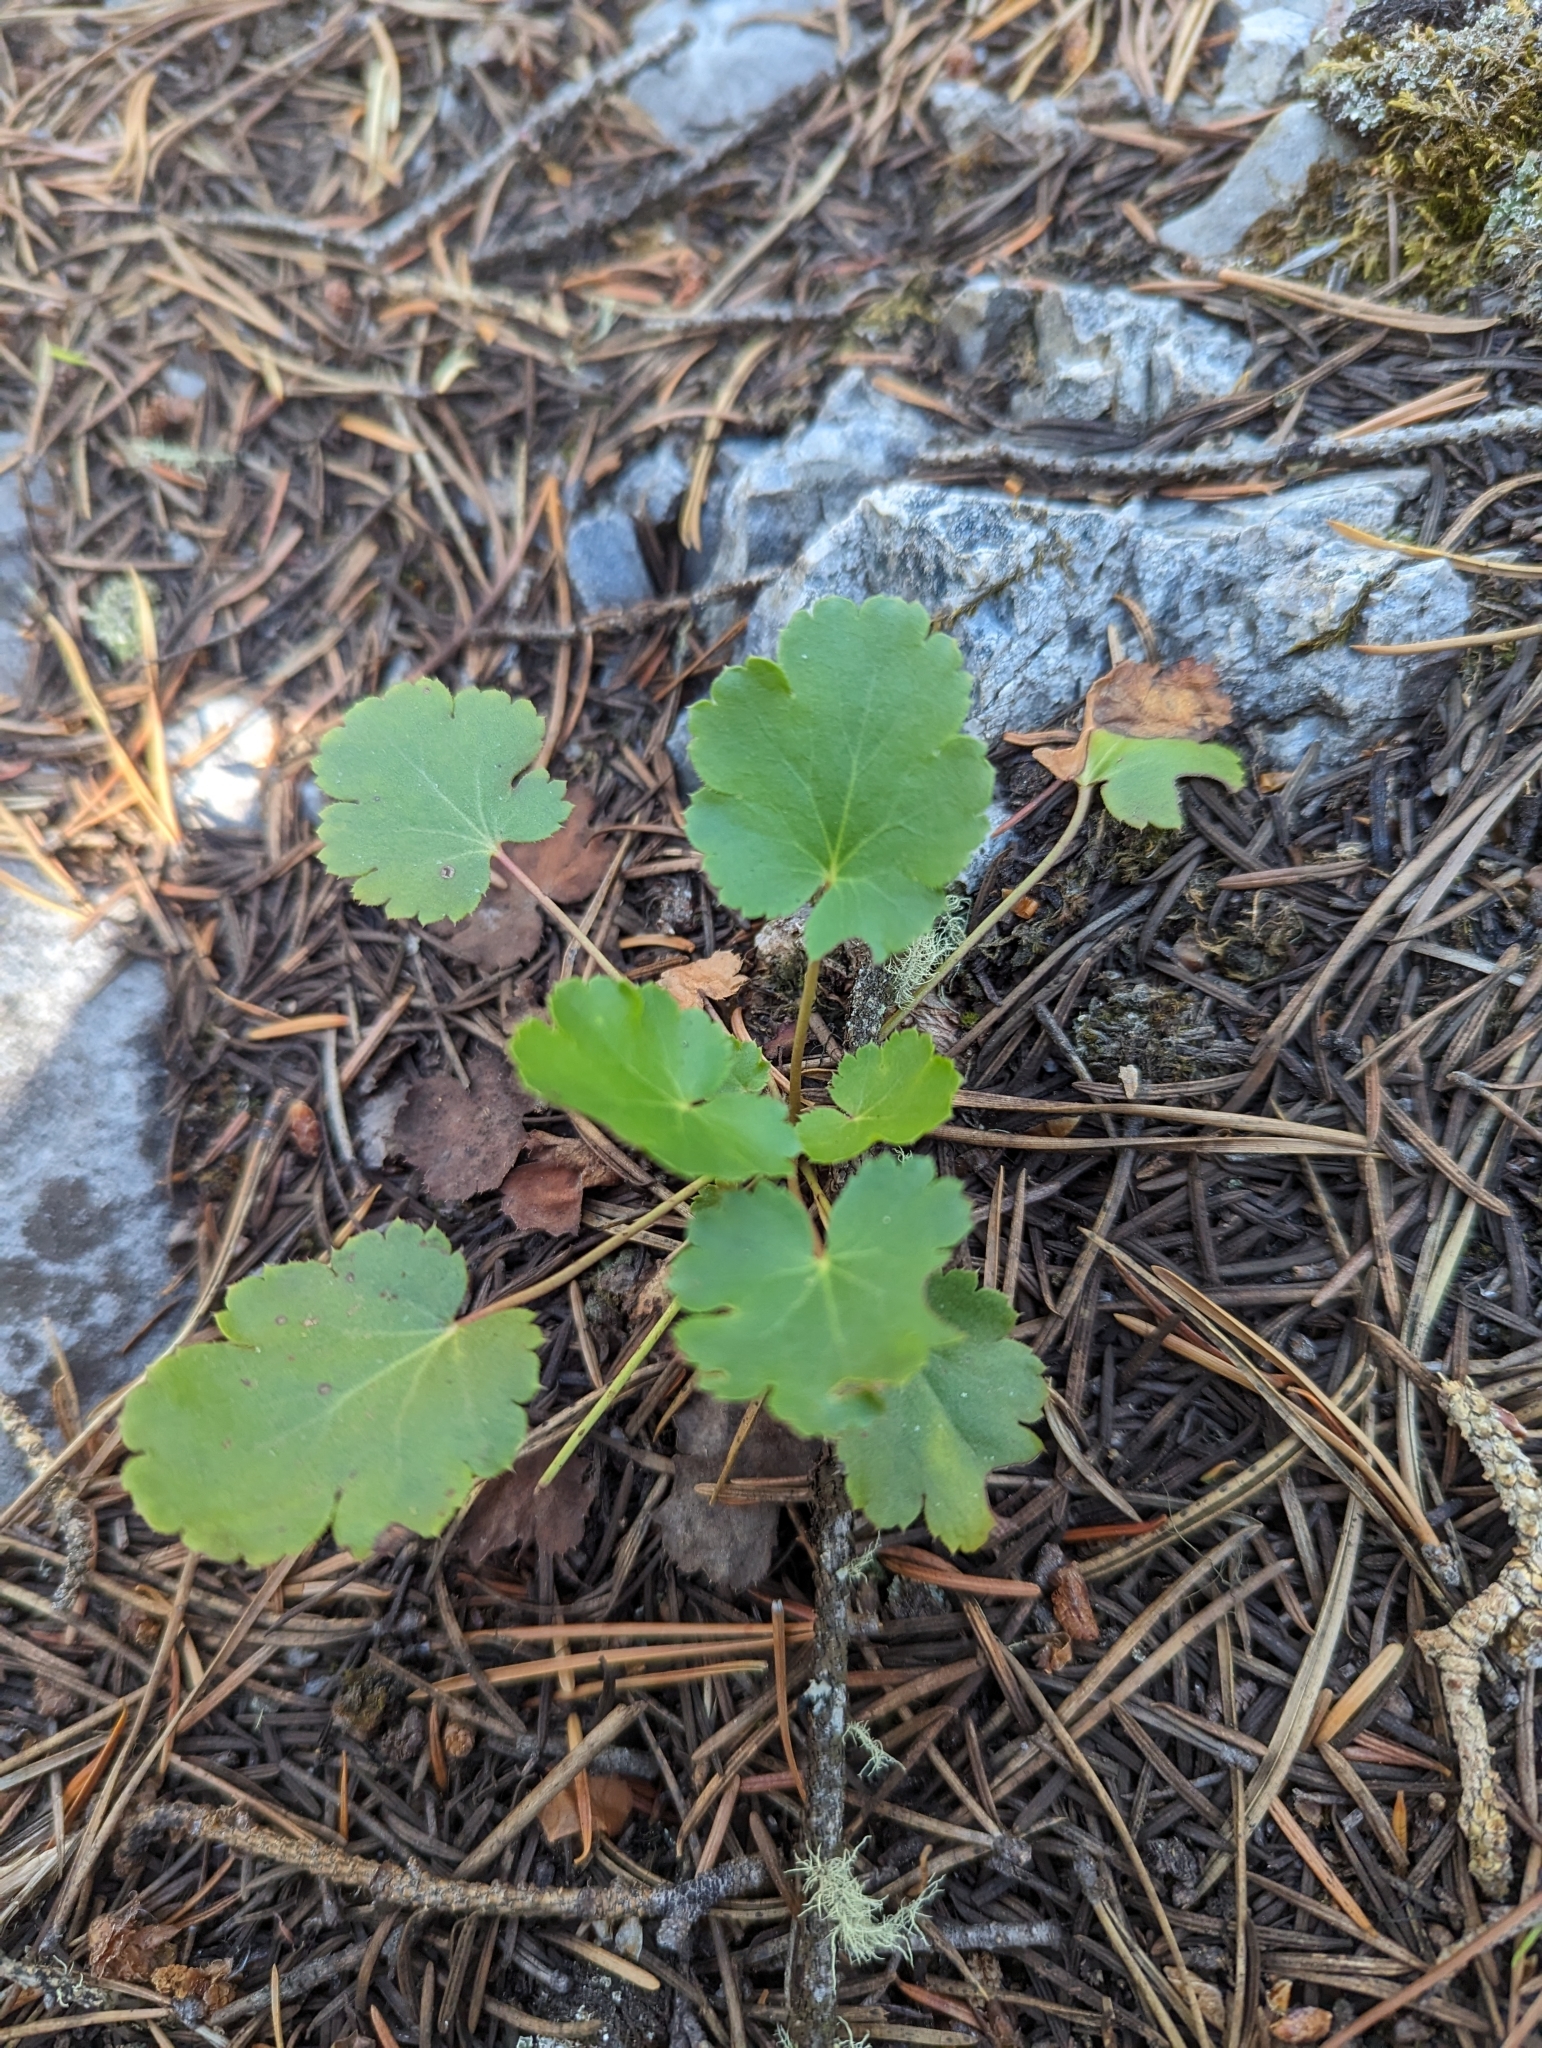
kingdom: Plantae
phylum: Tracheophyta
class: Magnoliopsida
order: Saxifragales
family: Saxifragaceae
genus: Heuchera
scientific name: Heuchera cylindrica
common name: Mat alumroot
